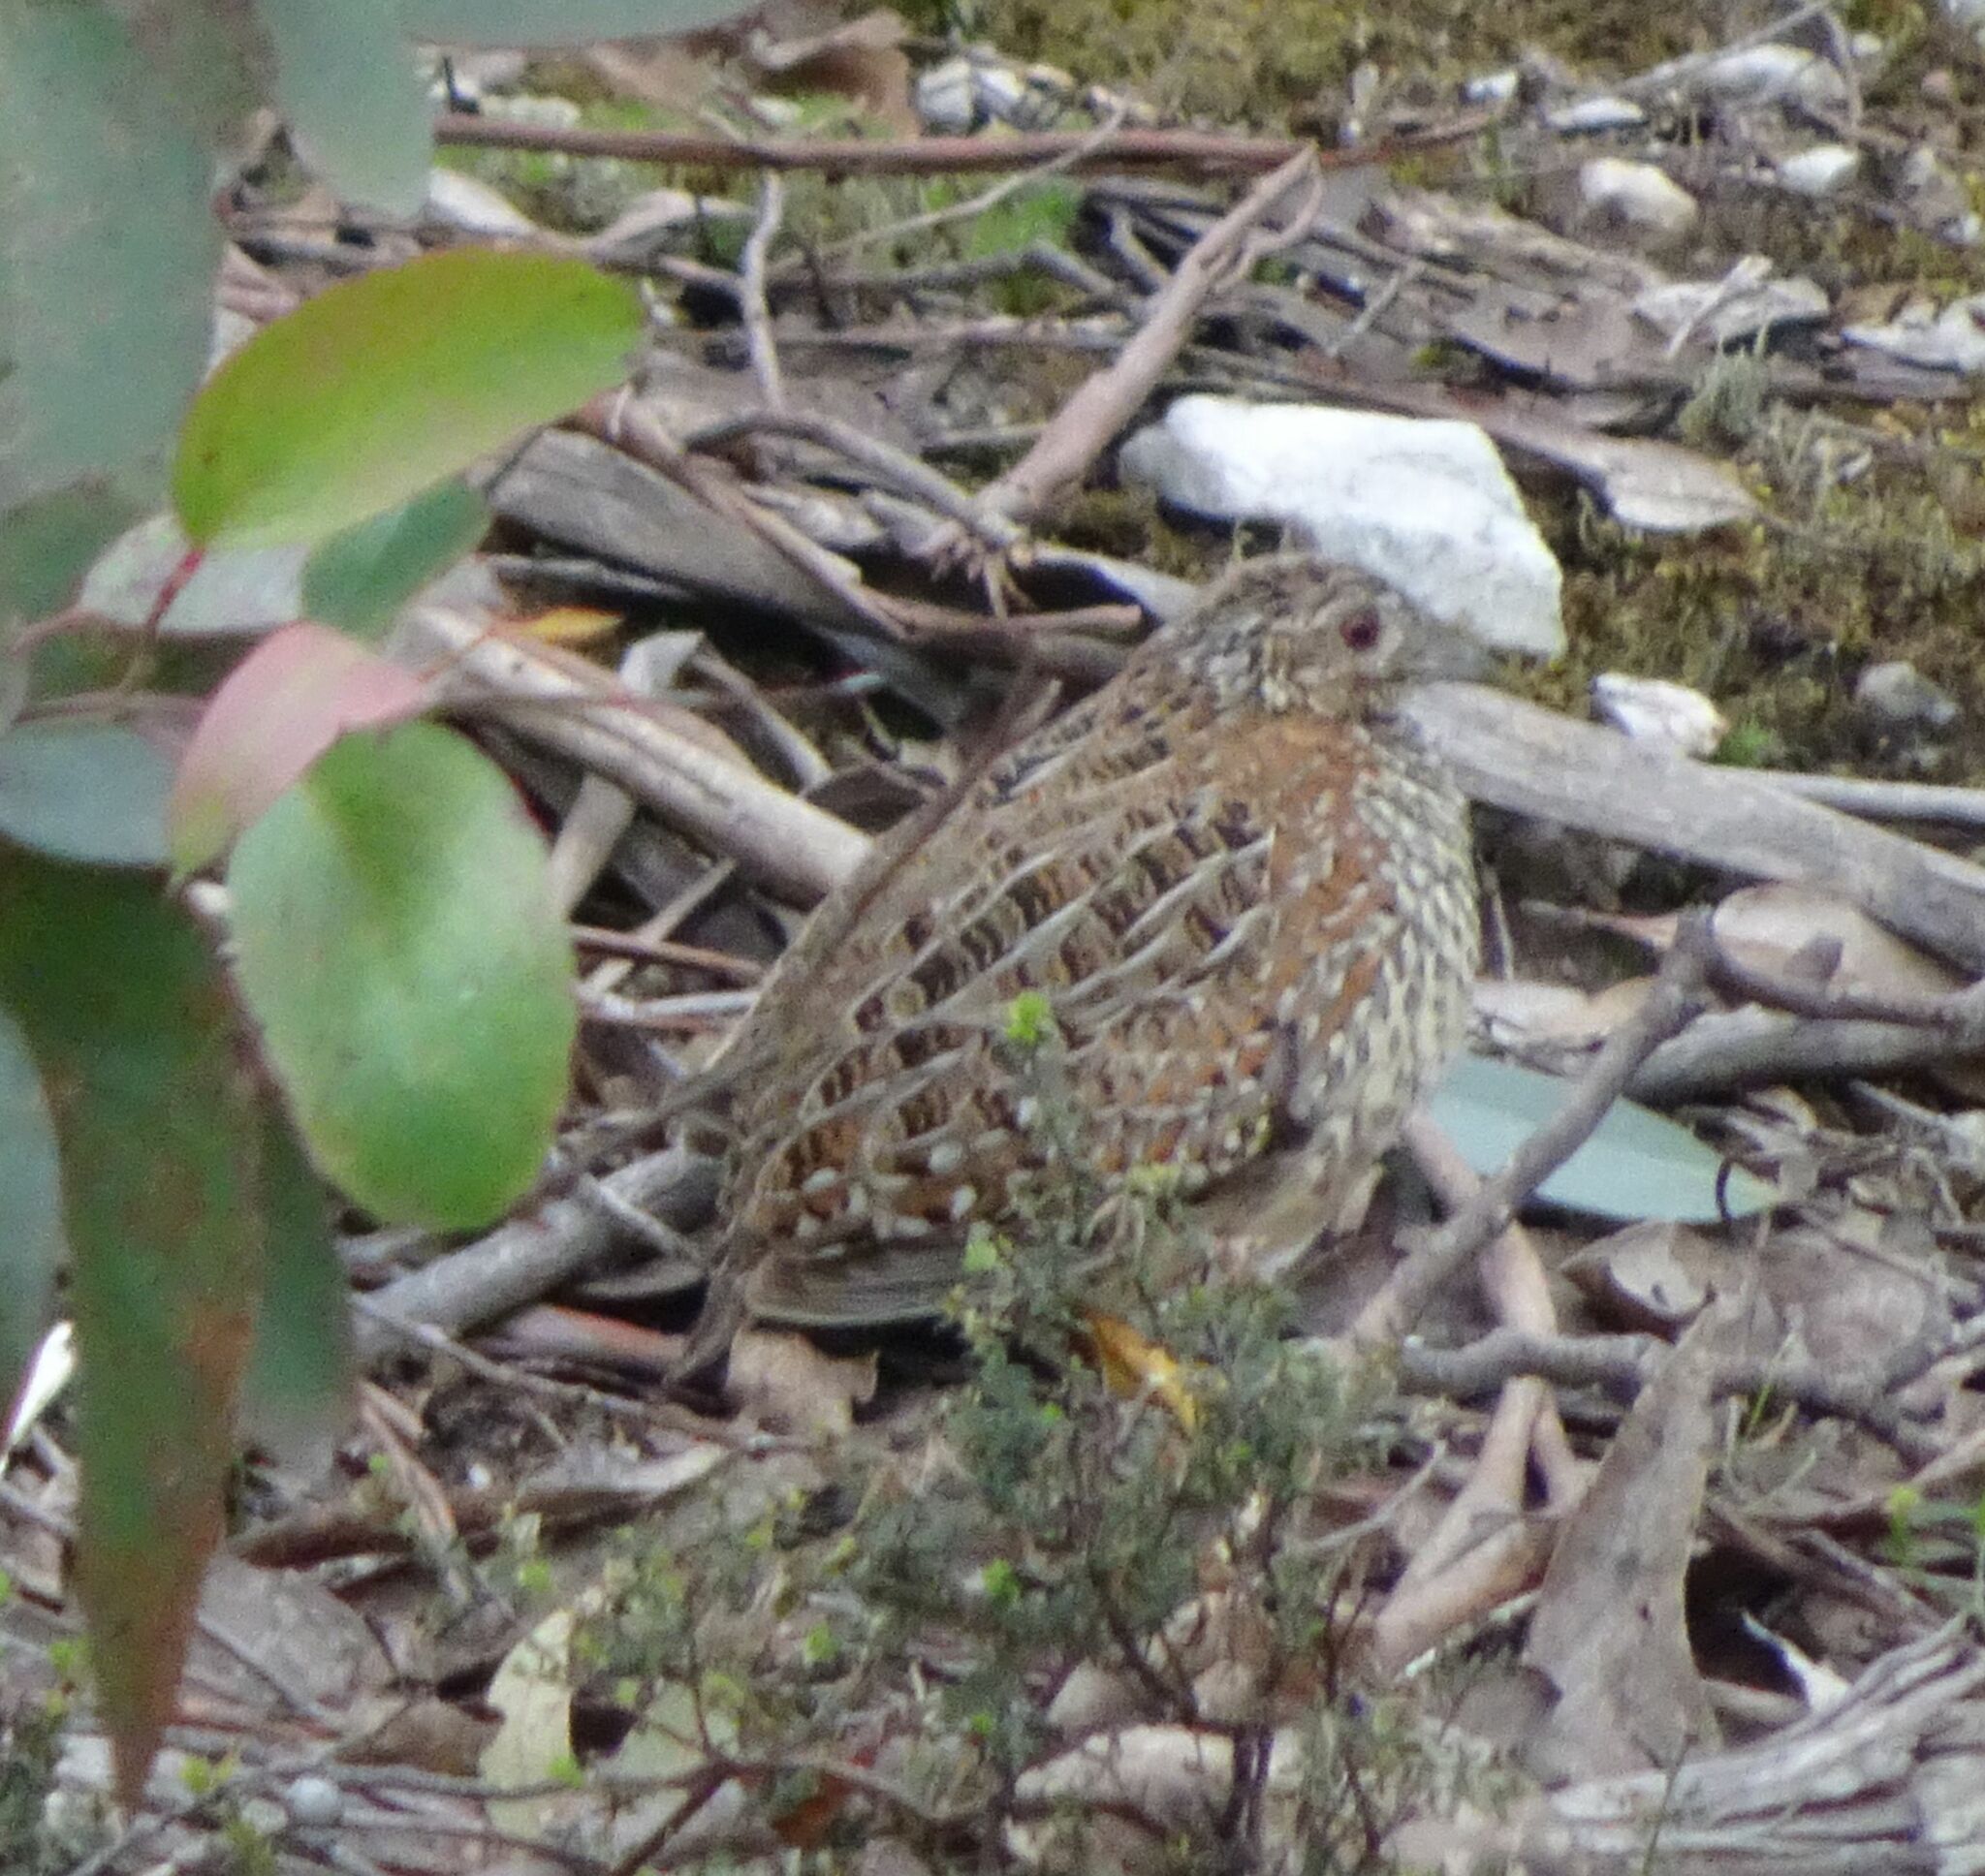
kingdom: Animalia
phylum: Chordata
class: Aves
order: Charadriiformes
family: Turnicidae
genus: Turnix
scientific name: Turnix varius
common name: Painted buttonquail
